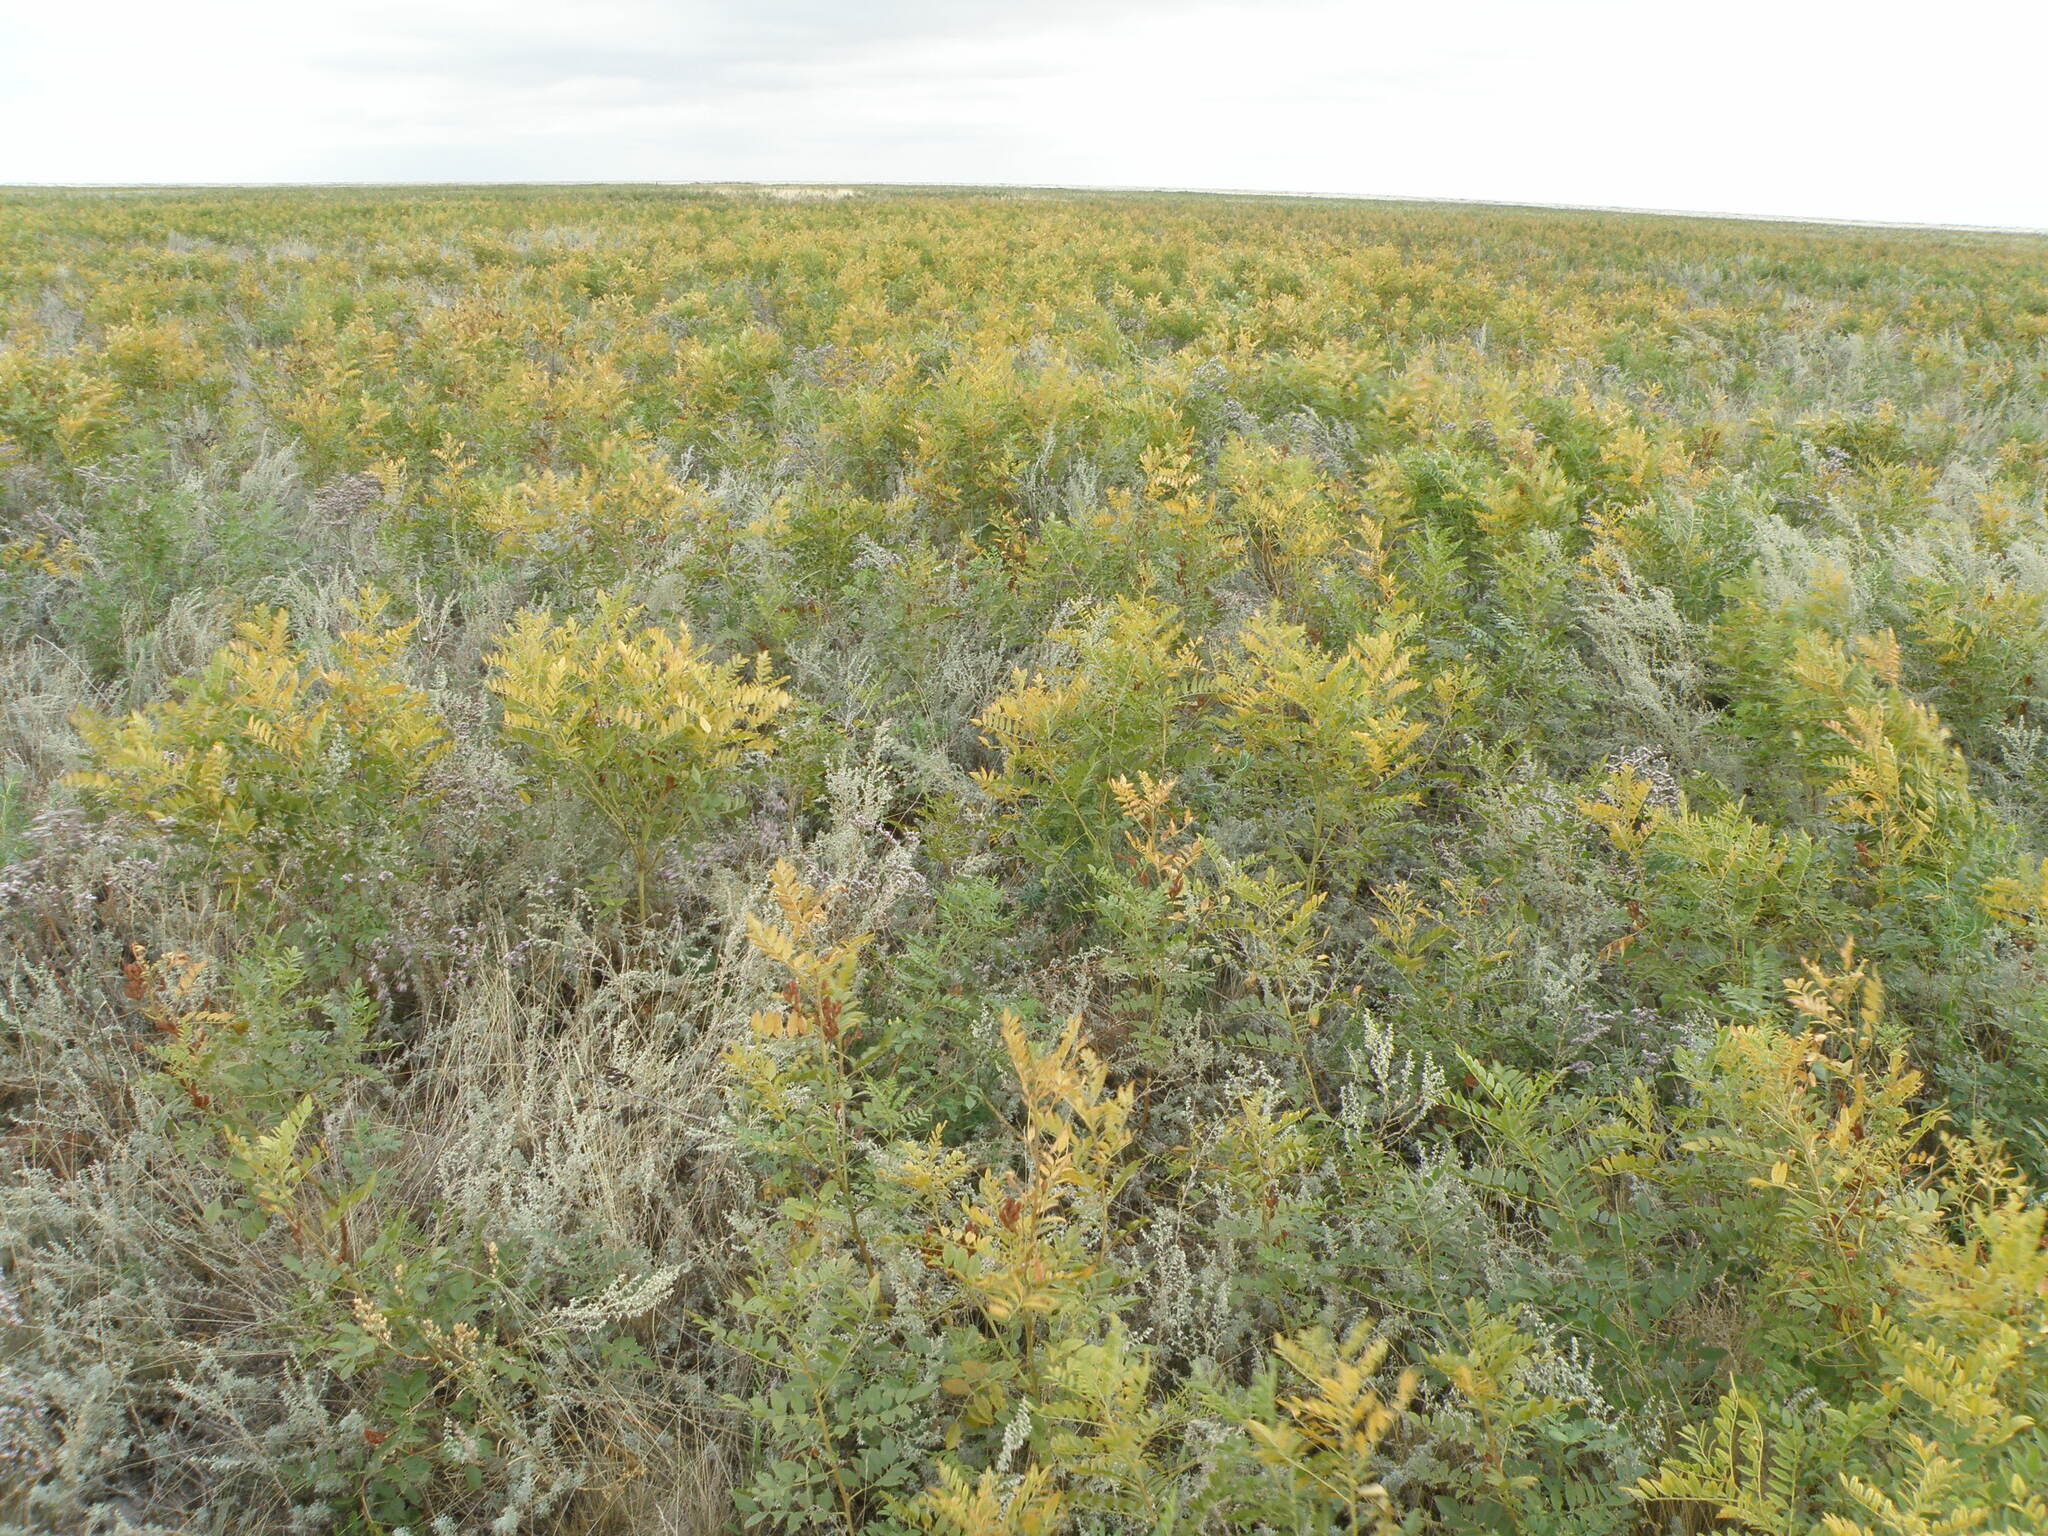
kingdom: Plantae
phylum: Tracheophyta
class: Magnoliopsida
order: Fabales
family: Fabaceae
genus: Glycyrrhiza
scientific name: Glycyrrhiza glabra
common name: Liquorice
